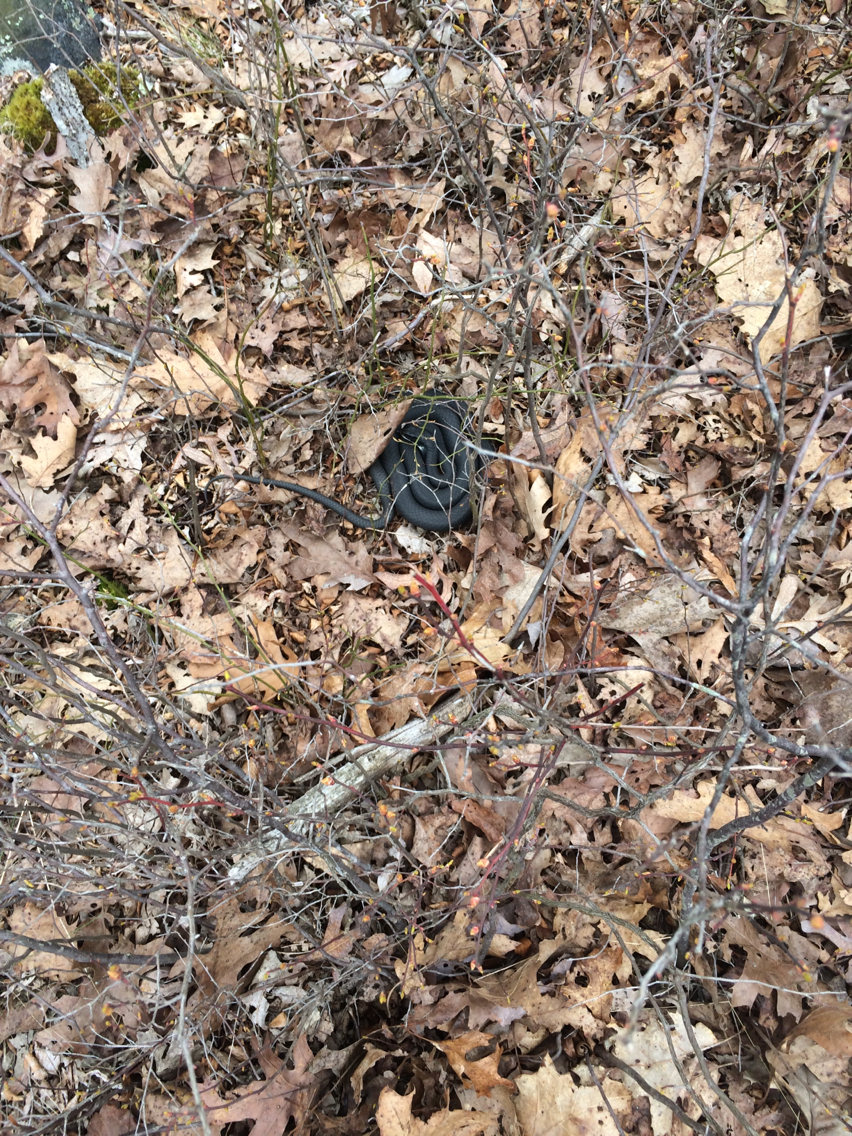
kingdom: Animalia
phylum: Chordata
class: Squamata
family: Colubridae
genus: Coluber
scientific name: Coluber constrictor
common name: Eastern racer
